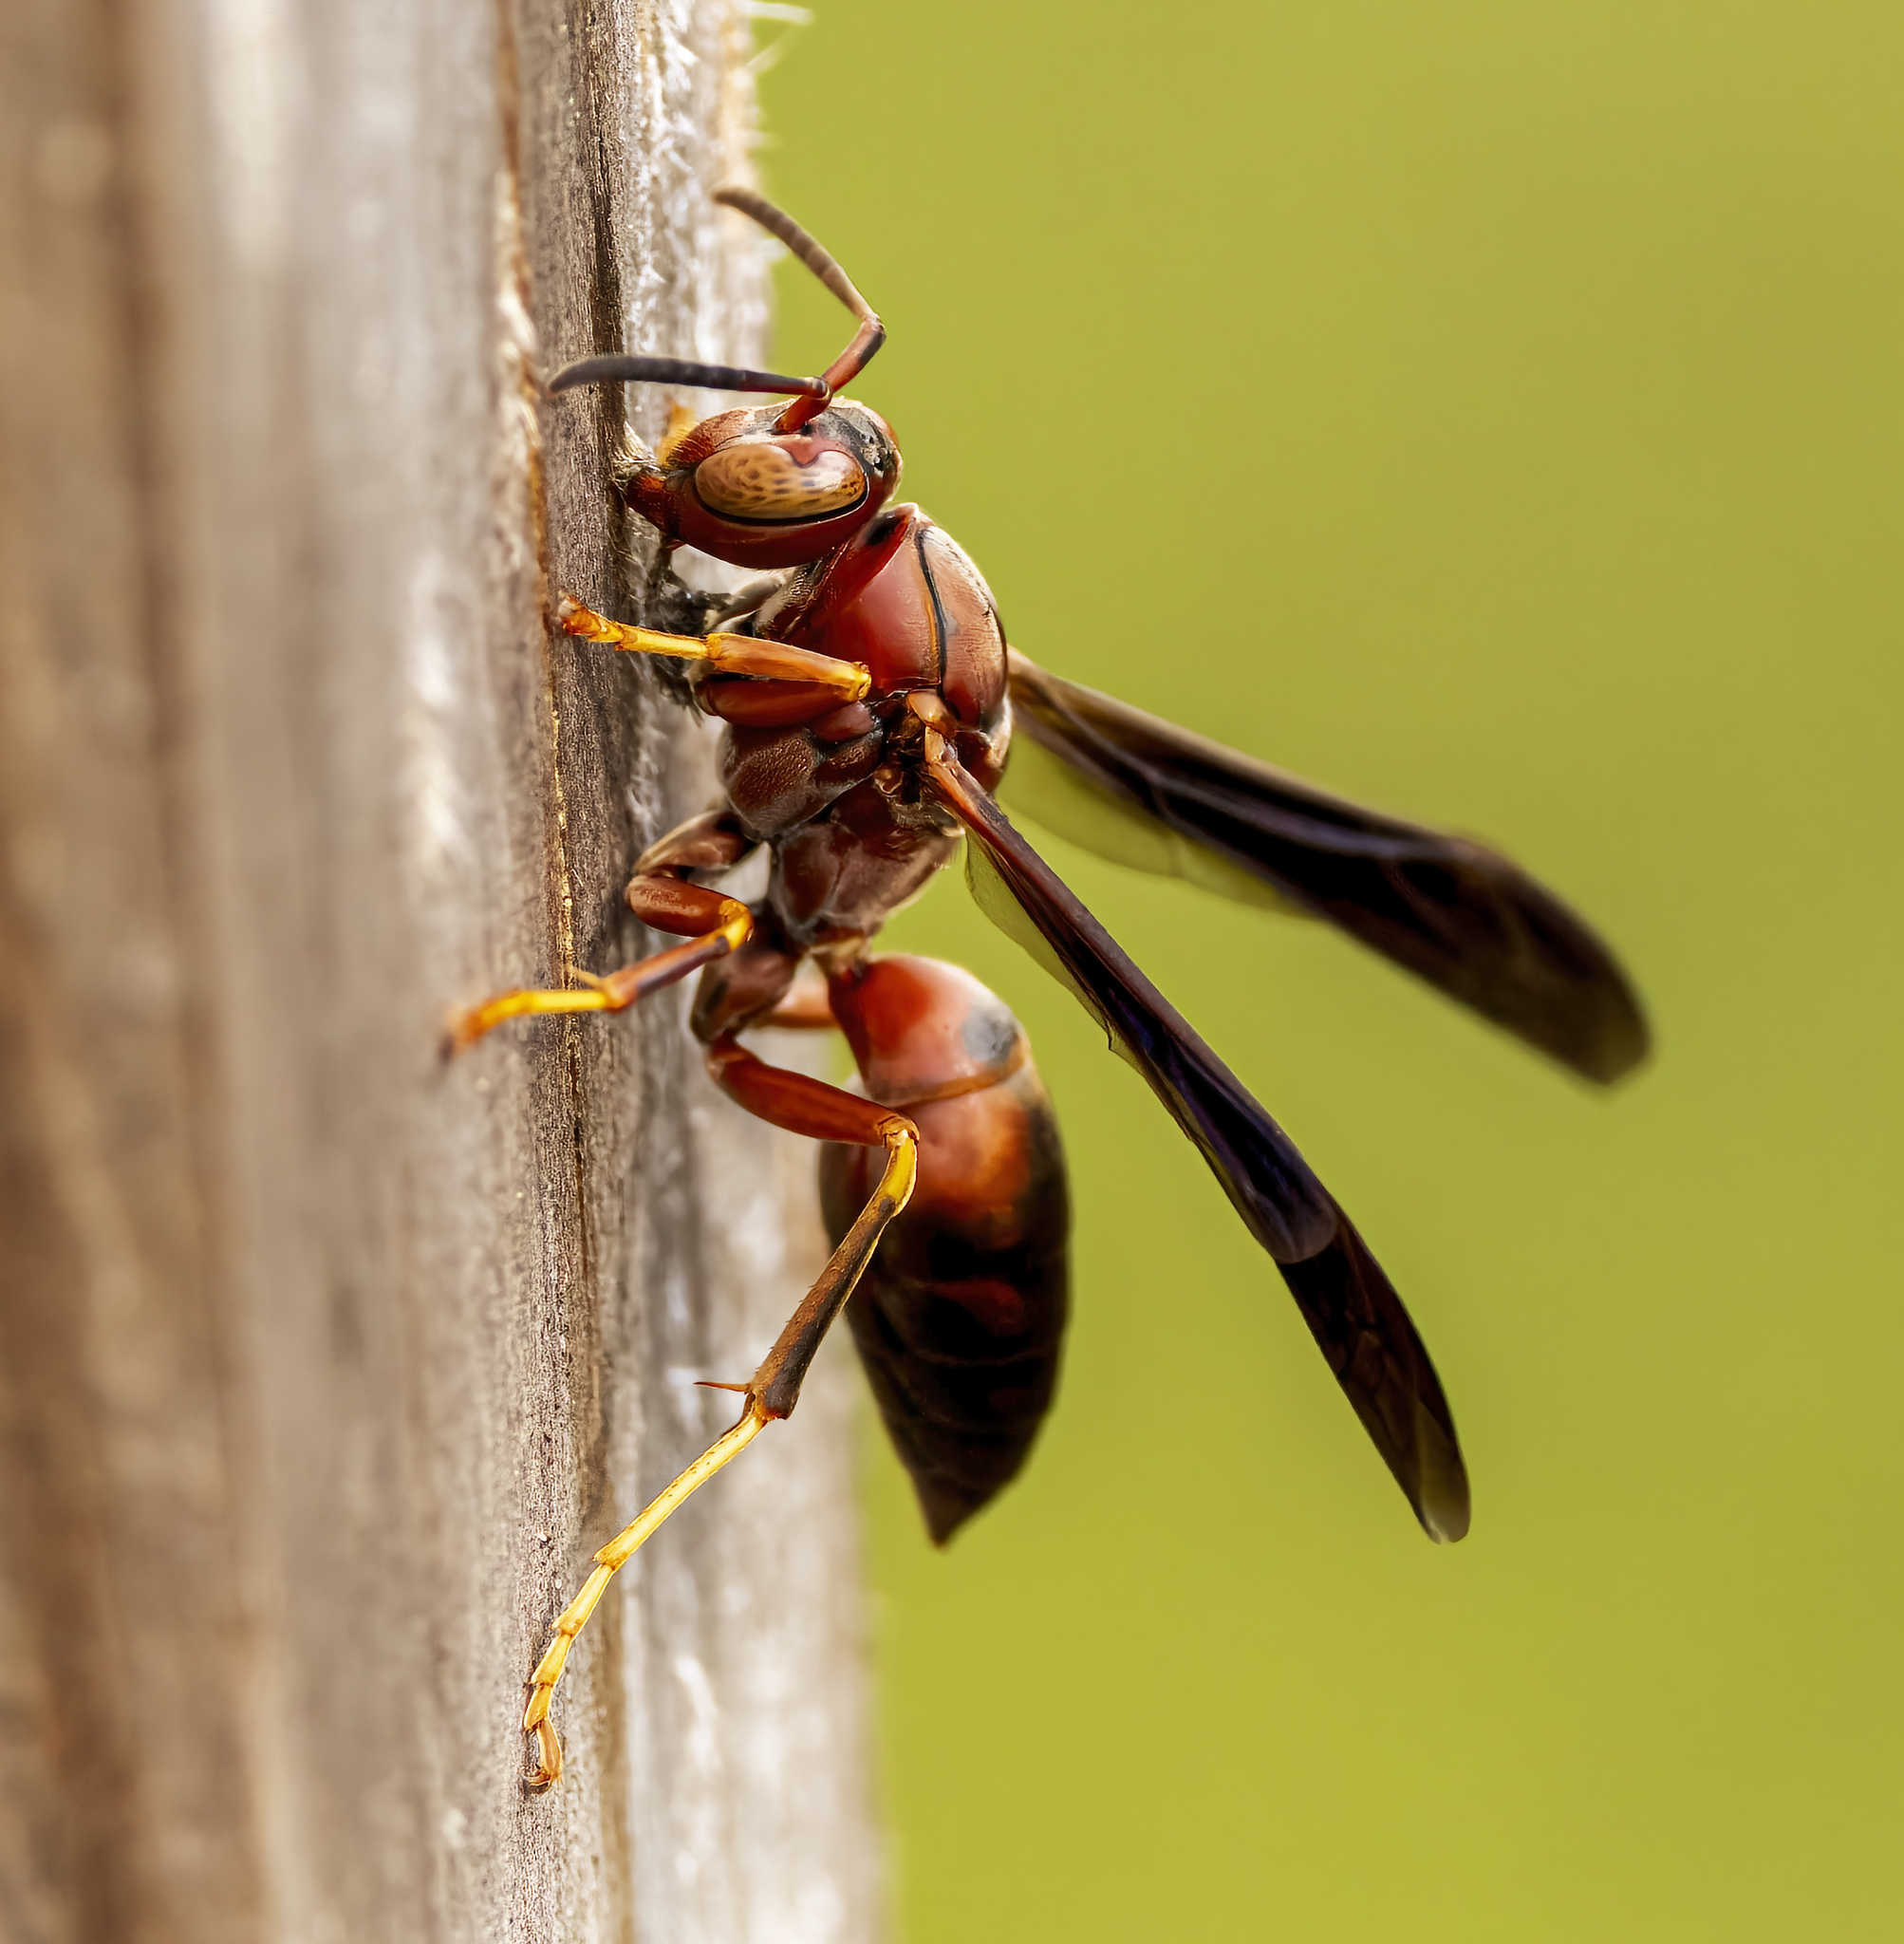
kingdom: Animalia
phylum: Arthropoda
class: Insecta
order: Hymenoptera
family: Eumenidae
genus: Polistes
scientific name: Polistes metricus
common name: Metric paper wasp
